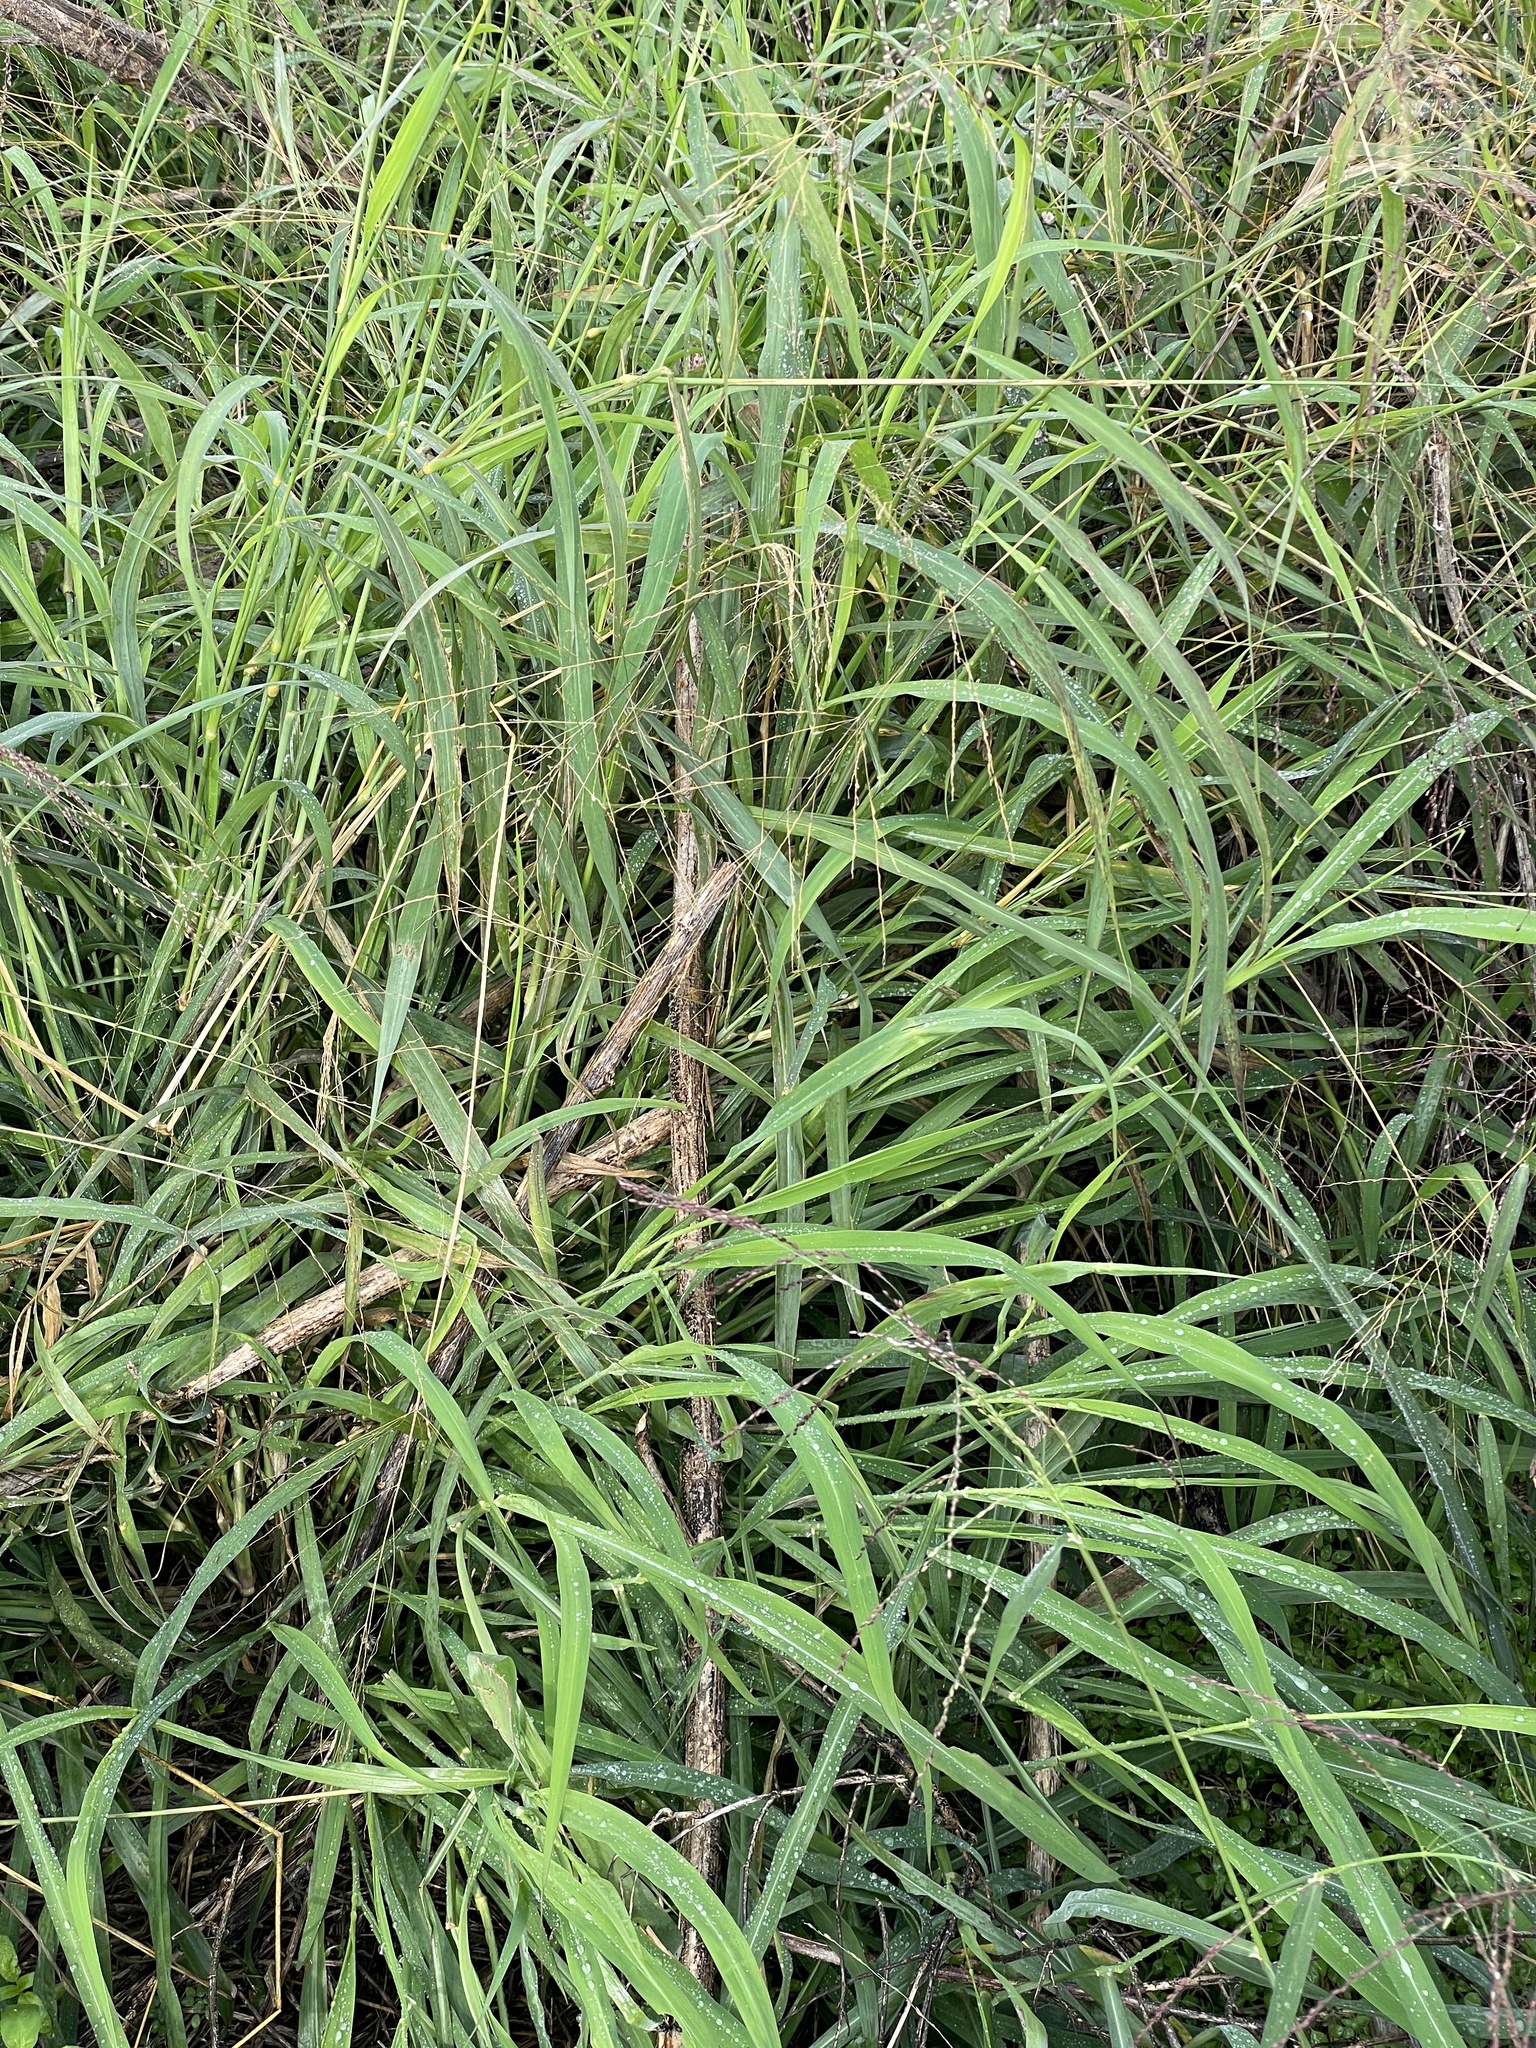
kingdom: Plantae
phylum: Tracheophyta
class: Liliopsida
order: Poales
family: Poaceae
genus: Megathyrsus
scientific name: Megathyrsus maximus
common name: Guineagrass
